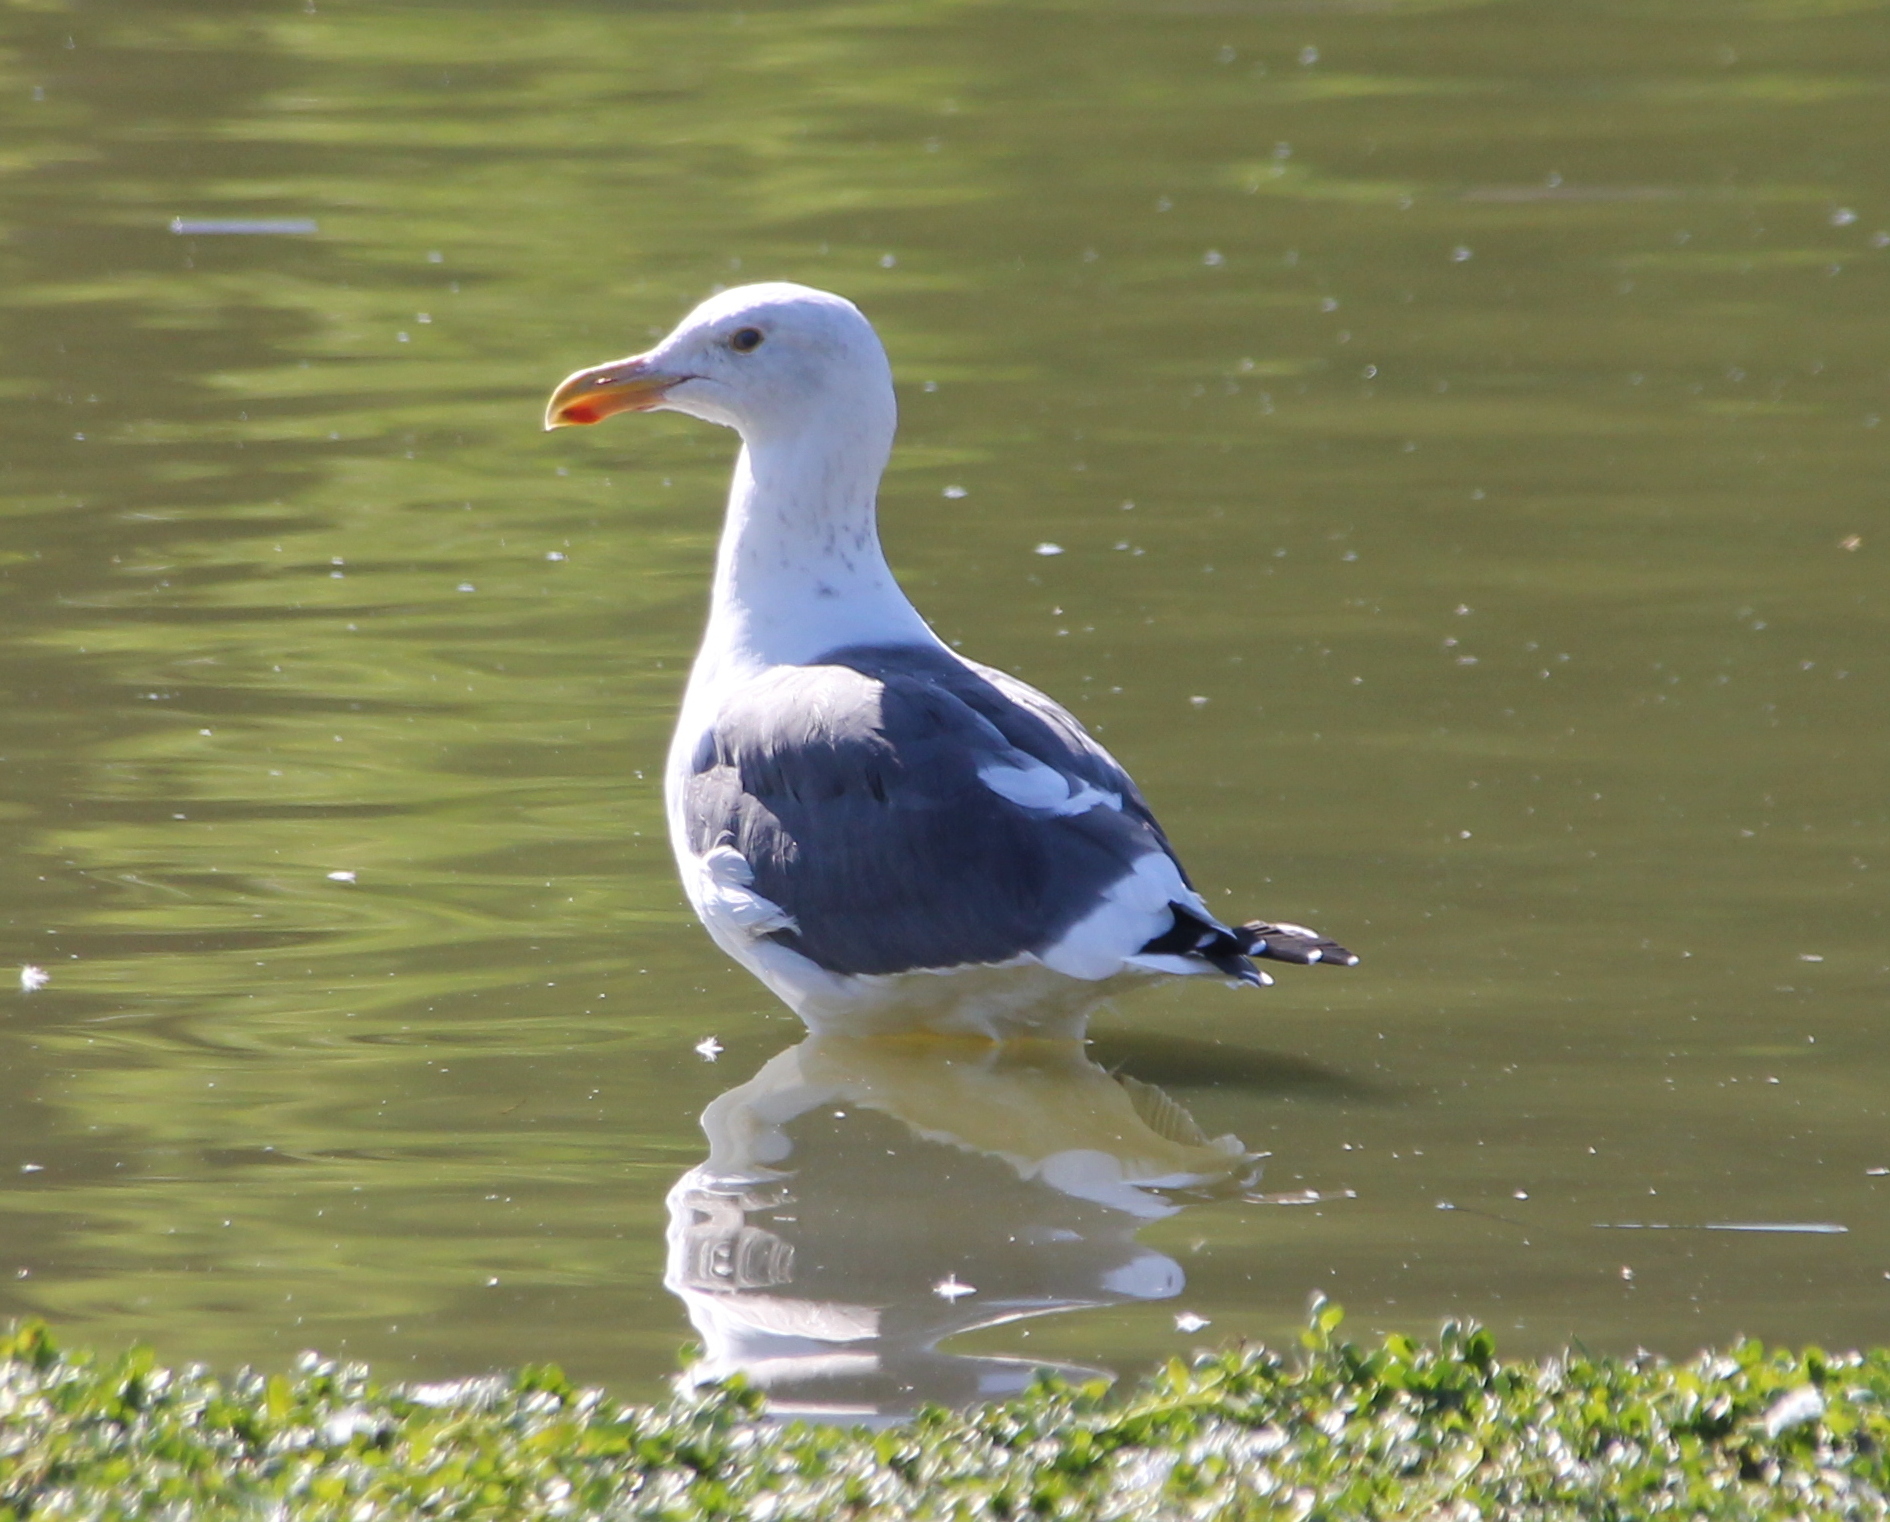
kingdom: Animalia
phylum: Chordata
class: Aves
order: Charadriiformes
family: Laridae
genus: Larus
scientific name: Larus occidentalis
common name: Western gull
